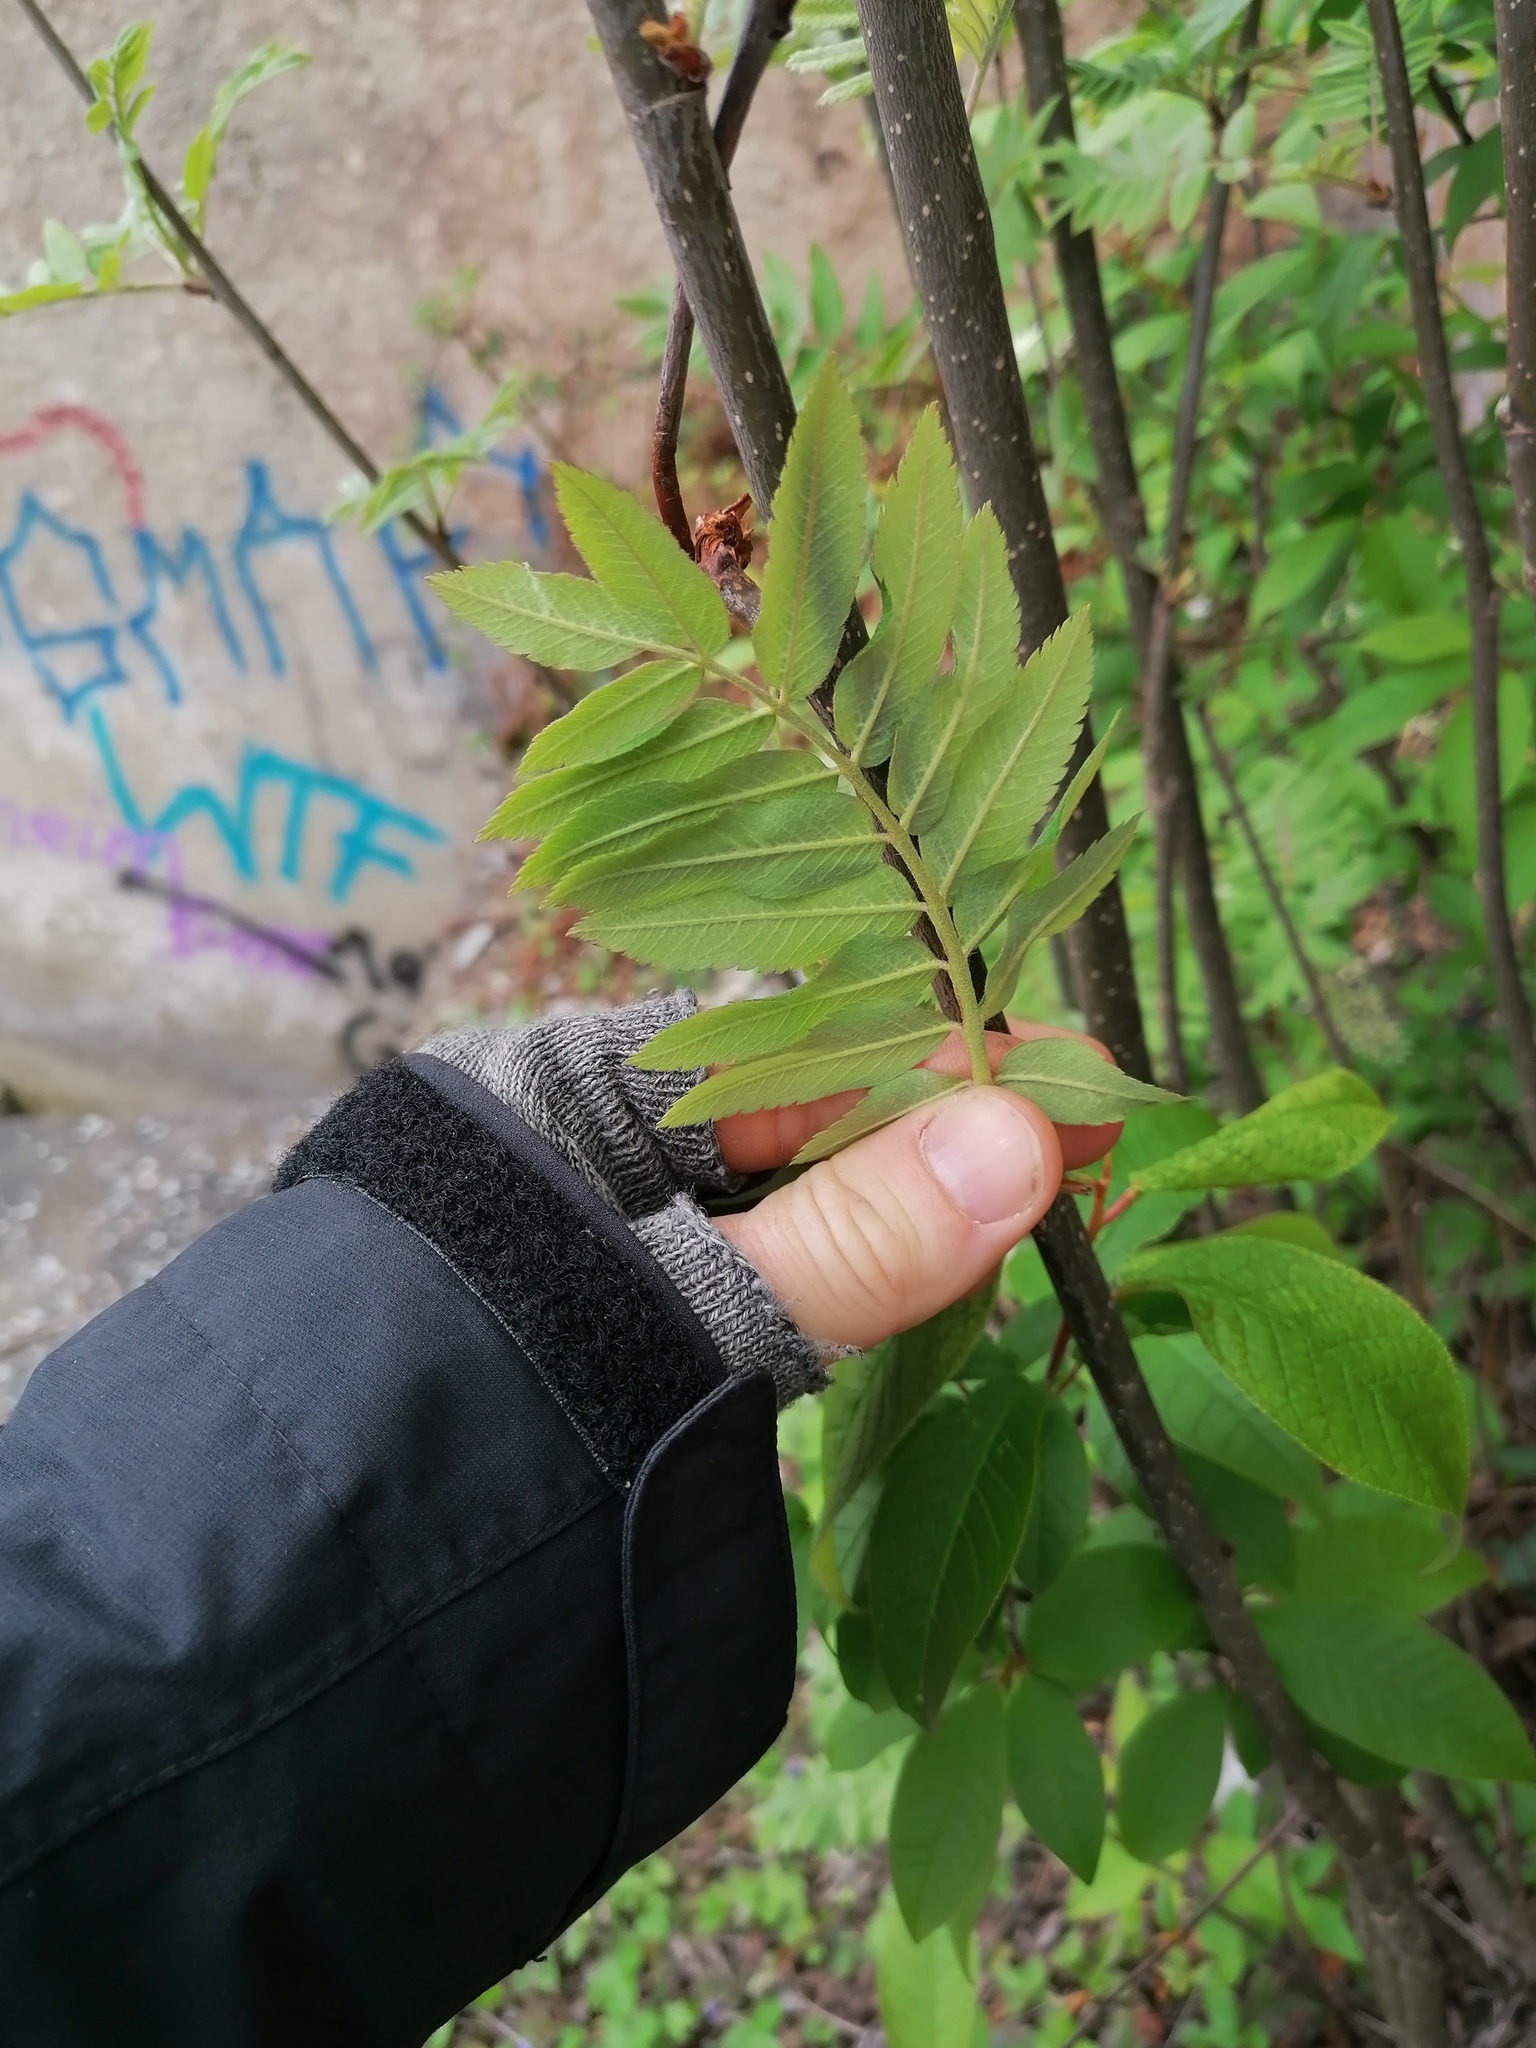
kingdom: Plantae
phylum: Tracheophyta
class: Magnoliopsida
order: Sapindales
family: Anacardiaceae
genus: Rhus
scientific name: Rhus typhina
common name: Staghorn sumac
